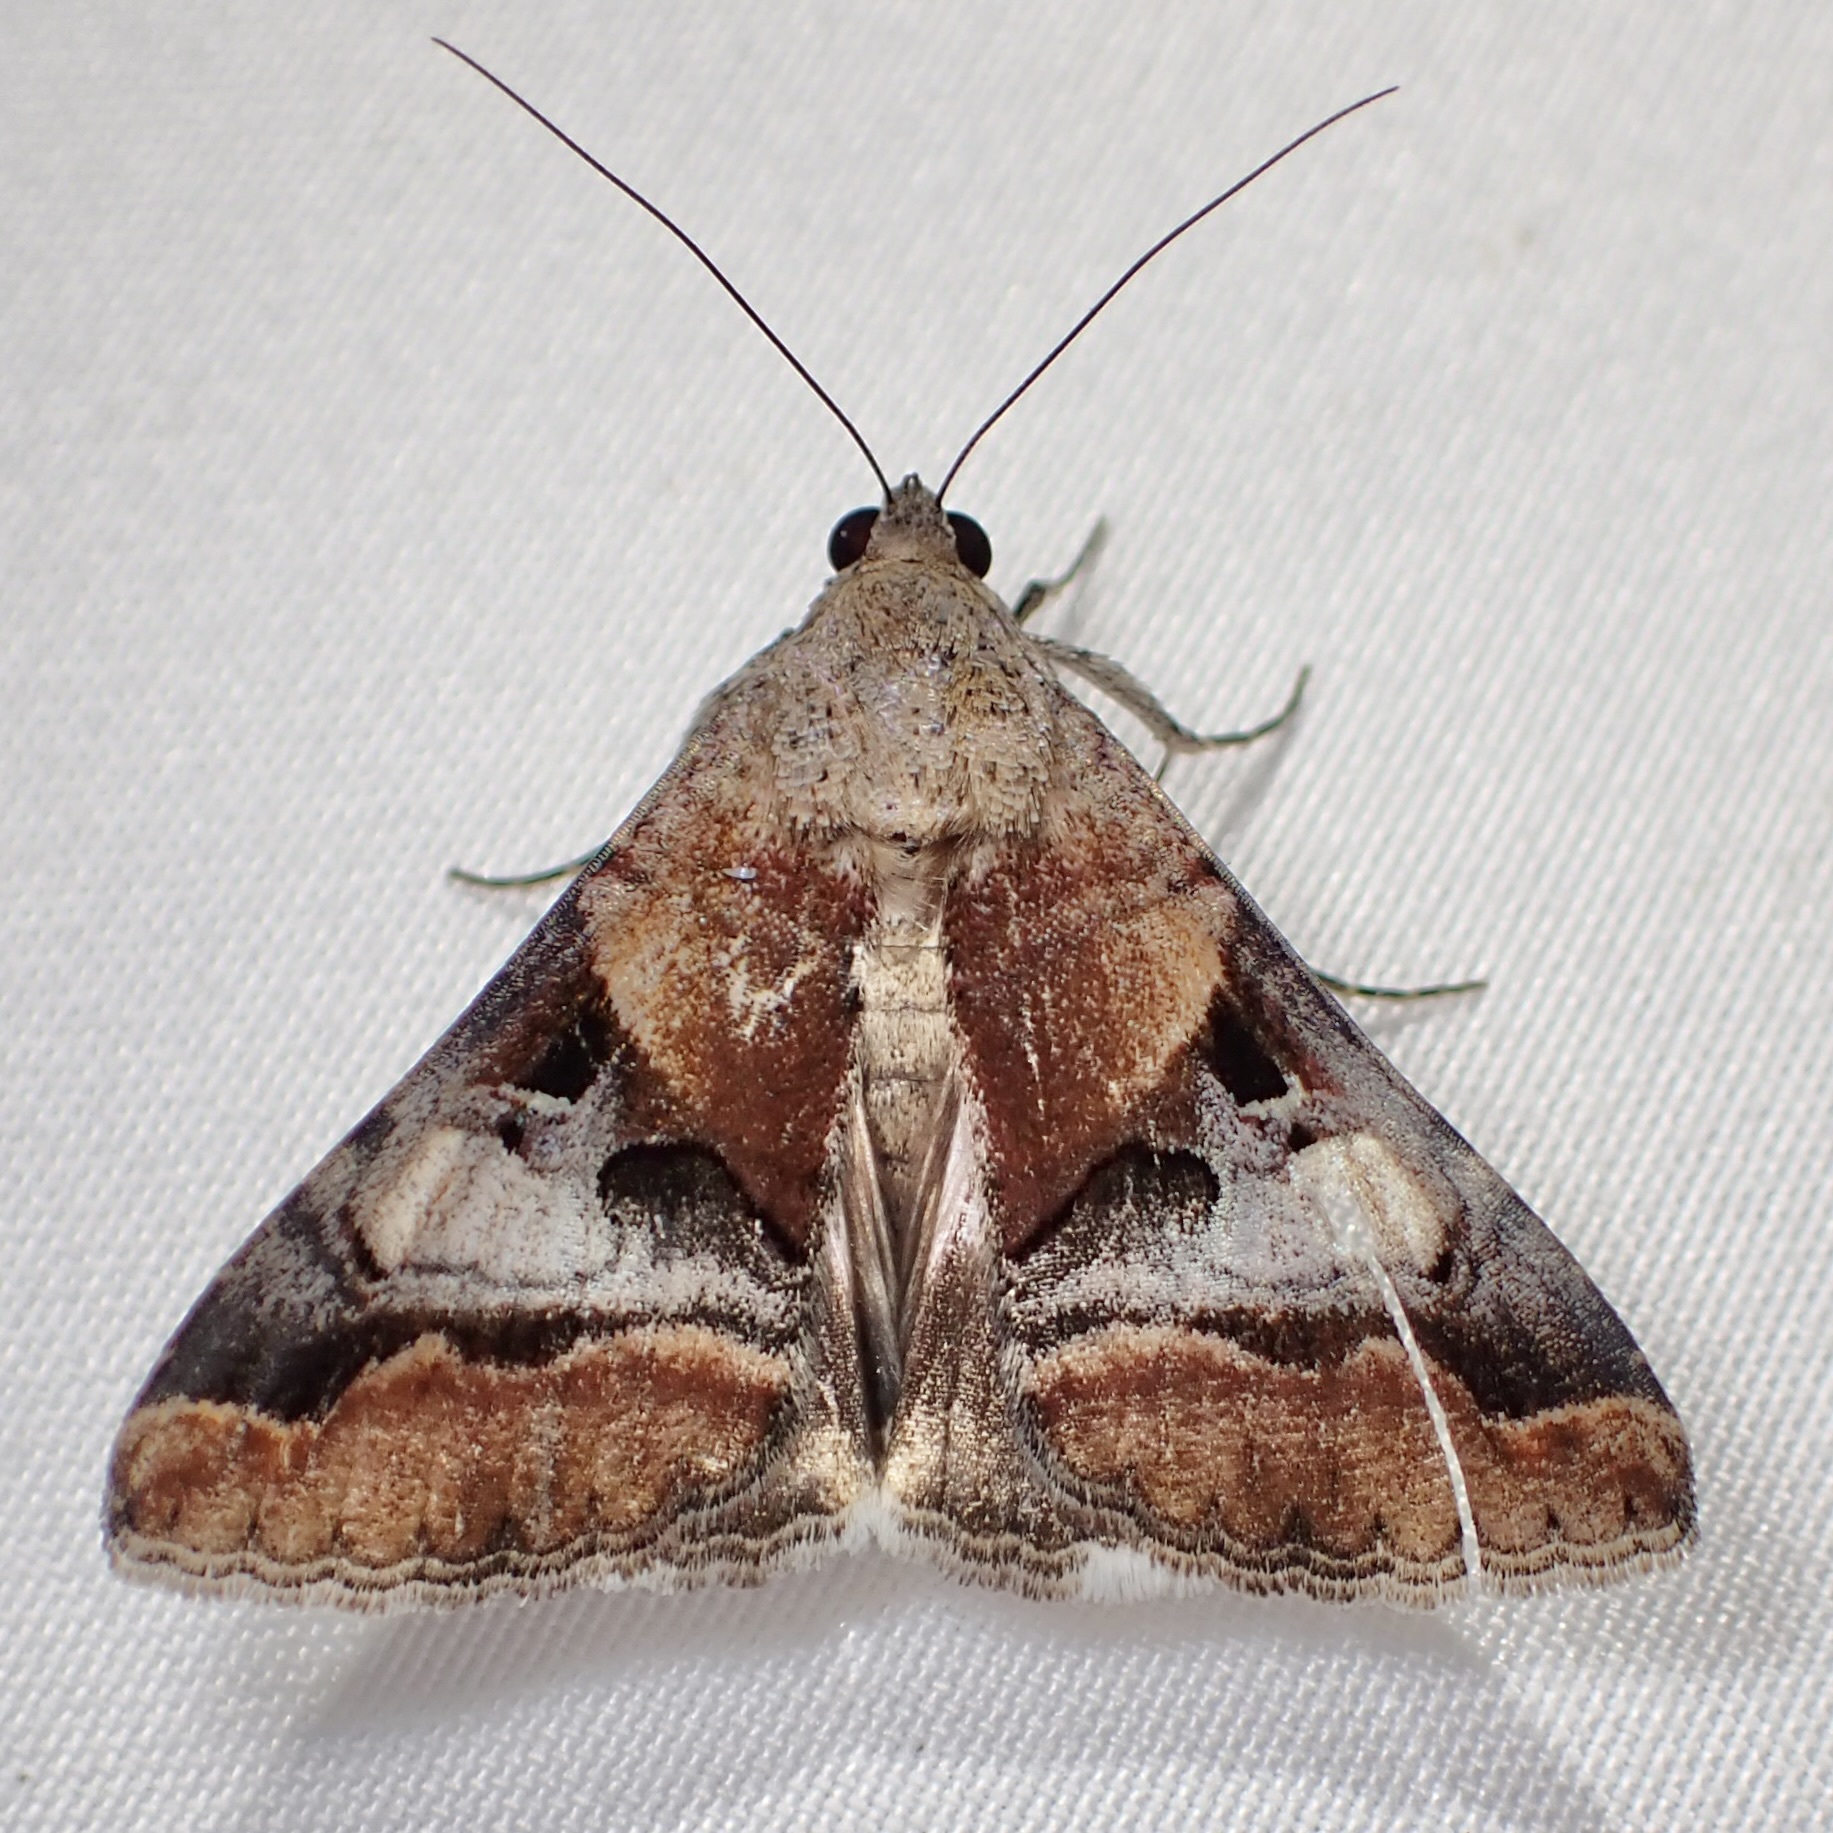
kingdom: Animalia
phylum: Arthropoda
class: Insecta
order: Lepidoptera
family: Erebidae
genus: Melipotis
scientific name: Melipotis perpendicularis
